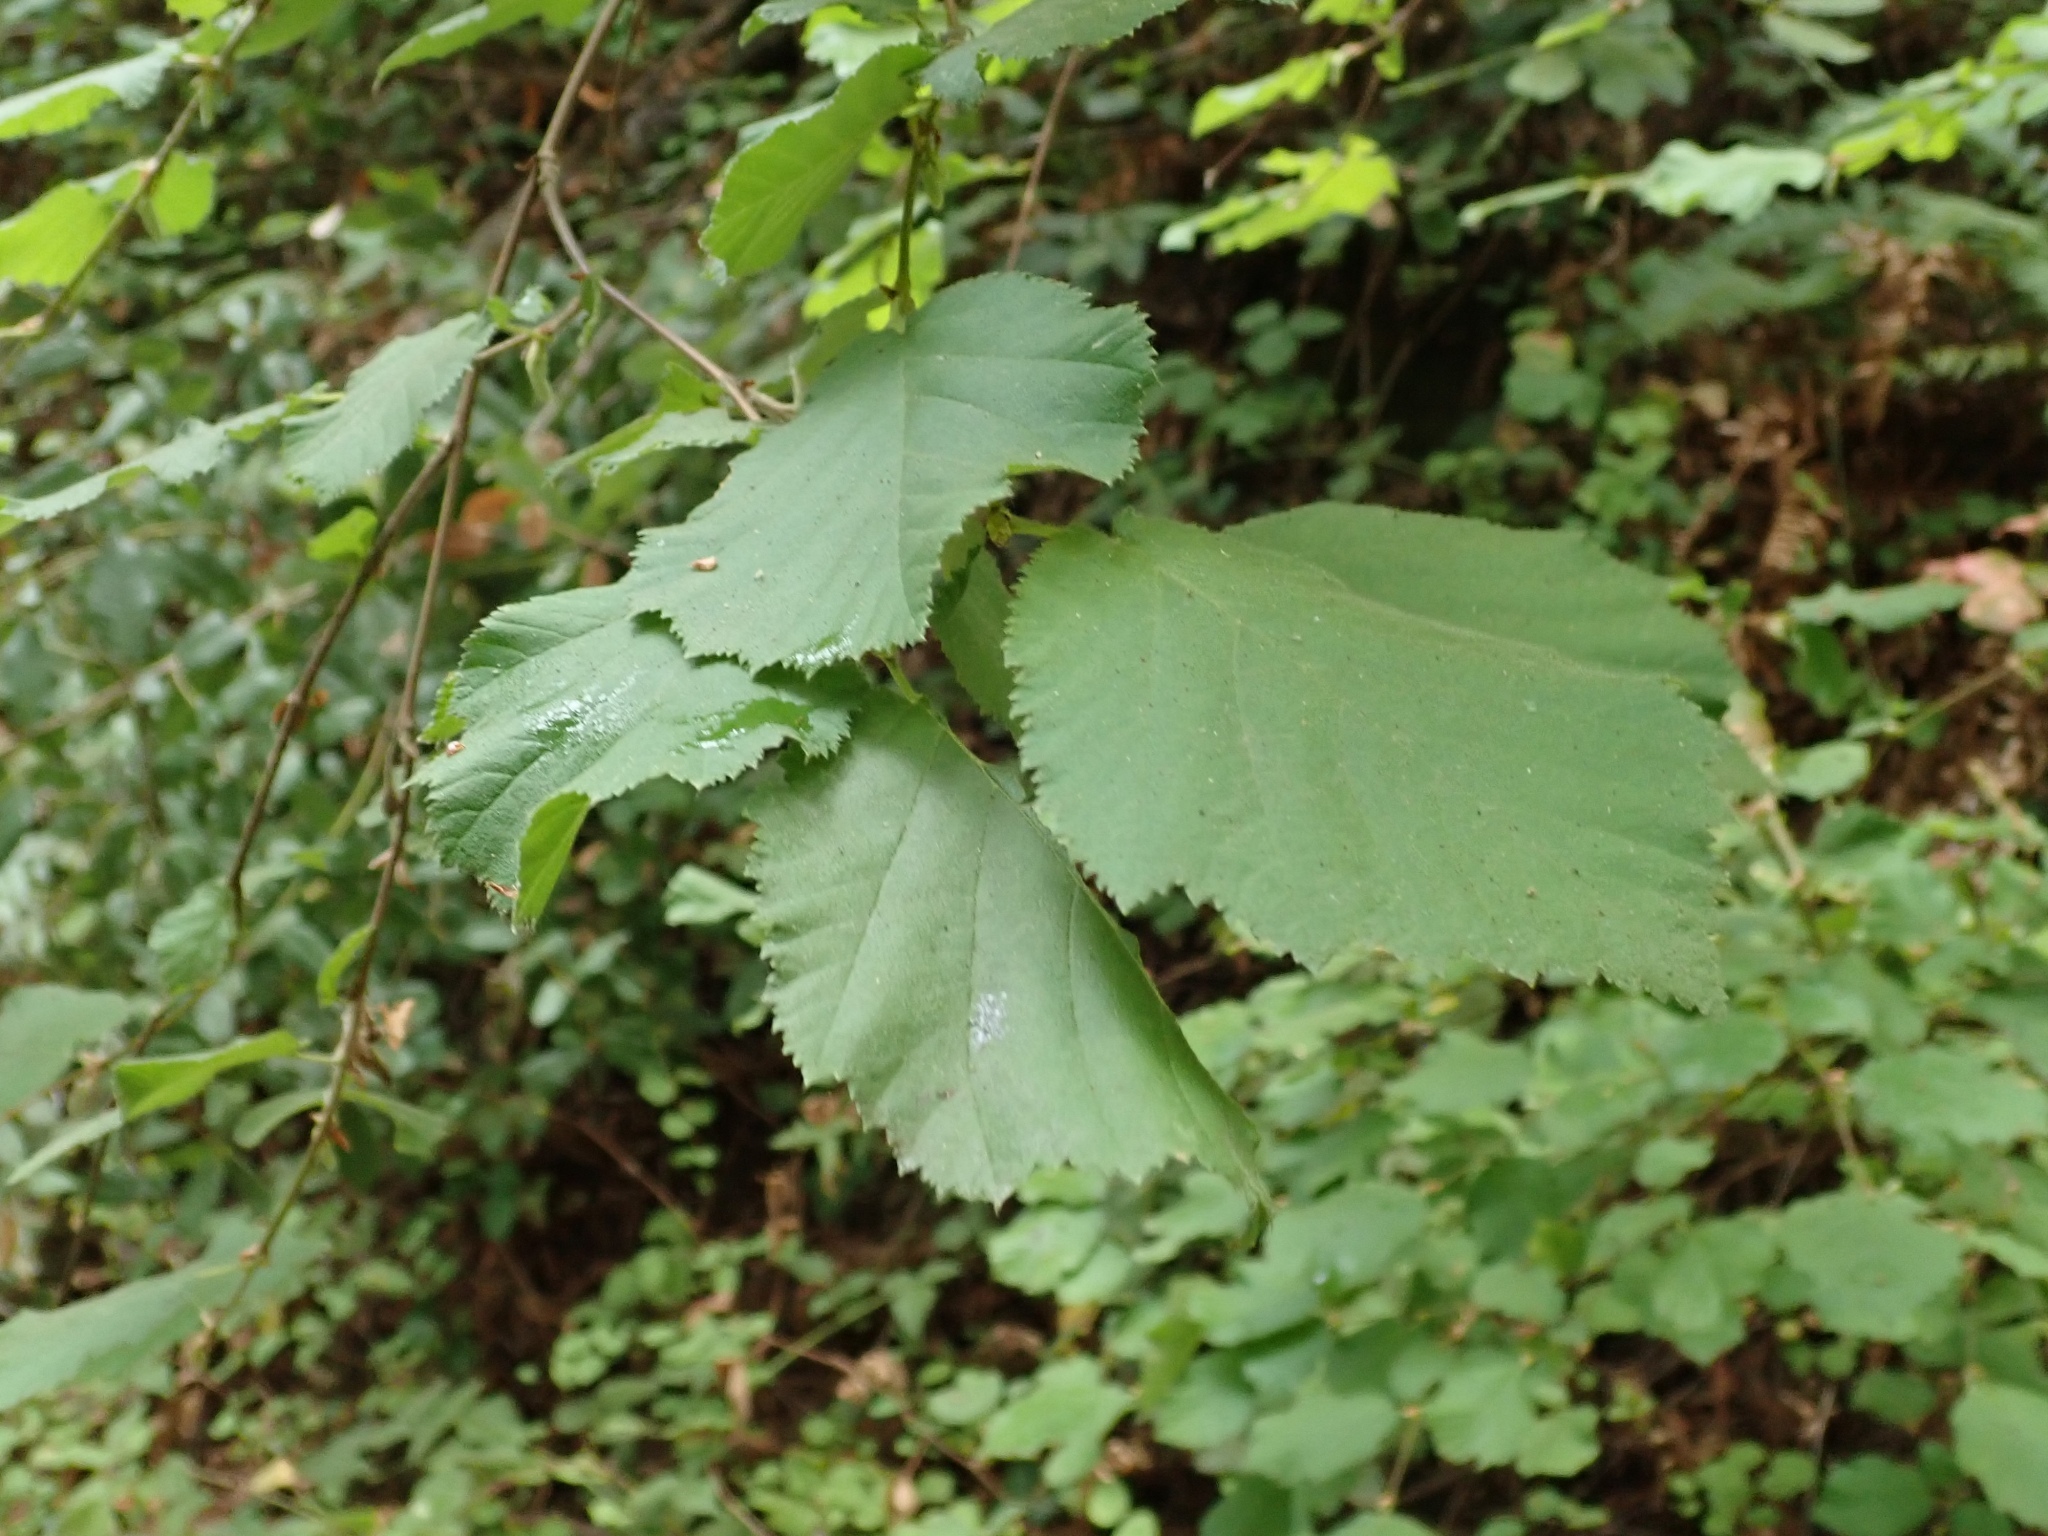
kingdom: Plantae
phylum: Tracheophyta
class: Magnoliopsida
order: Fagales
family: Betulaceae
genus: Corylus
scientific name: Corylus cornuta
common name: Beaked hazel
